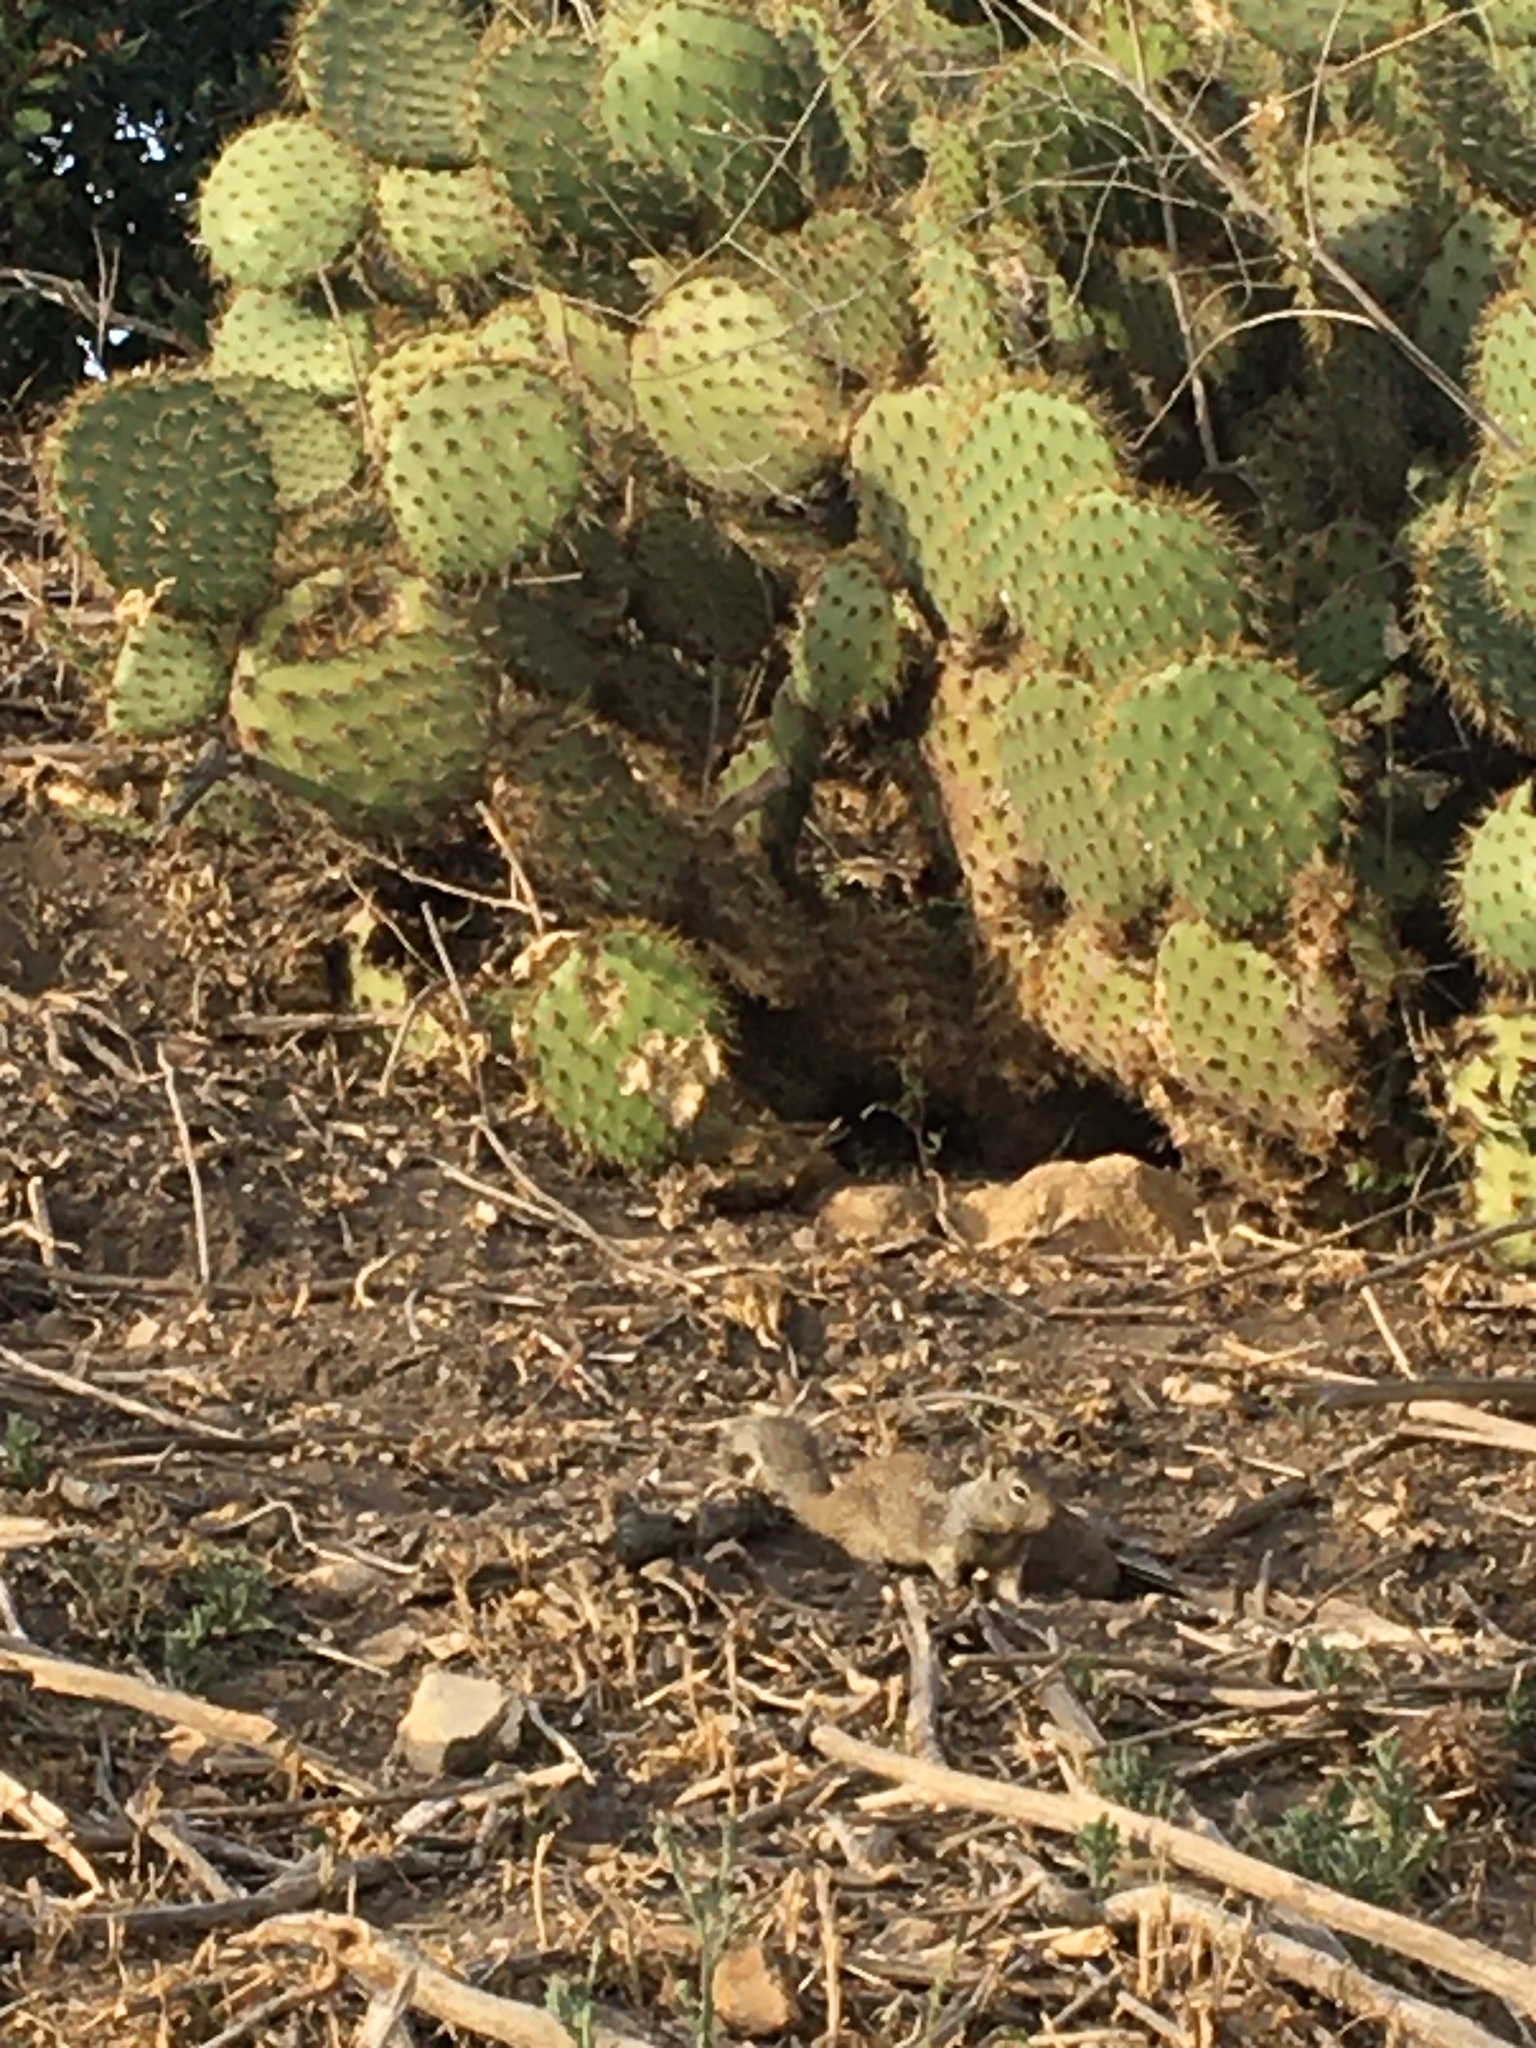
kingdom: Plantae
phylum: Tracheophyta
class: Magnoliopsida
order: Caryophyllales
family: Cactaceae
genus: Opuntia
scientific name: Opuntia oricola
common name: Chaparral prickly-pear
